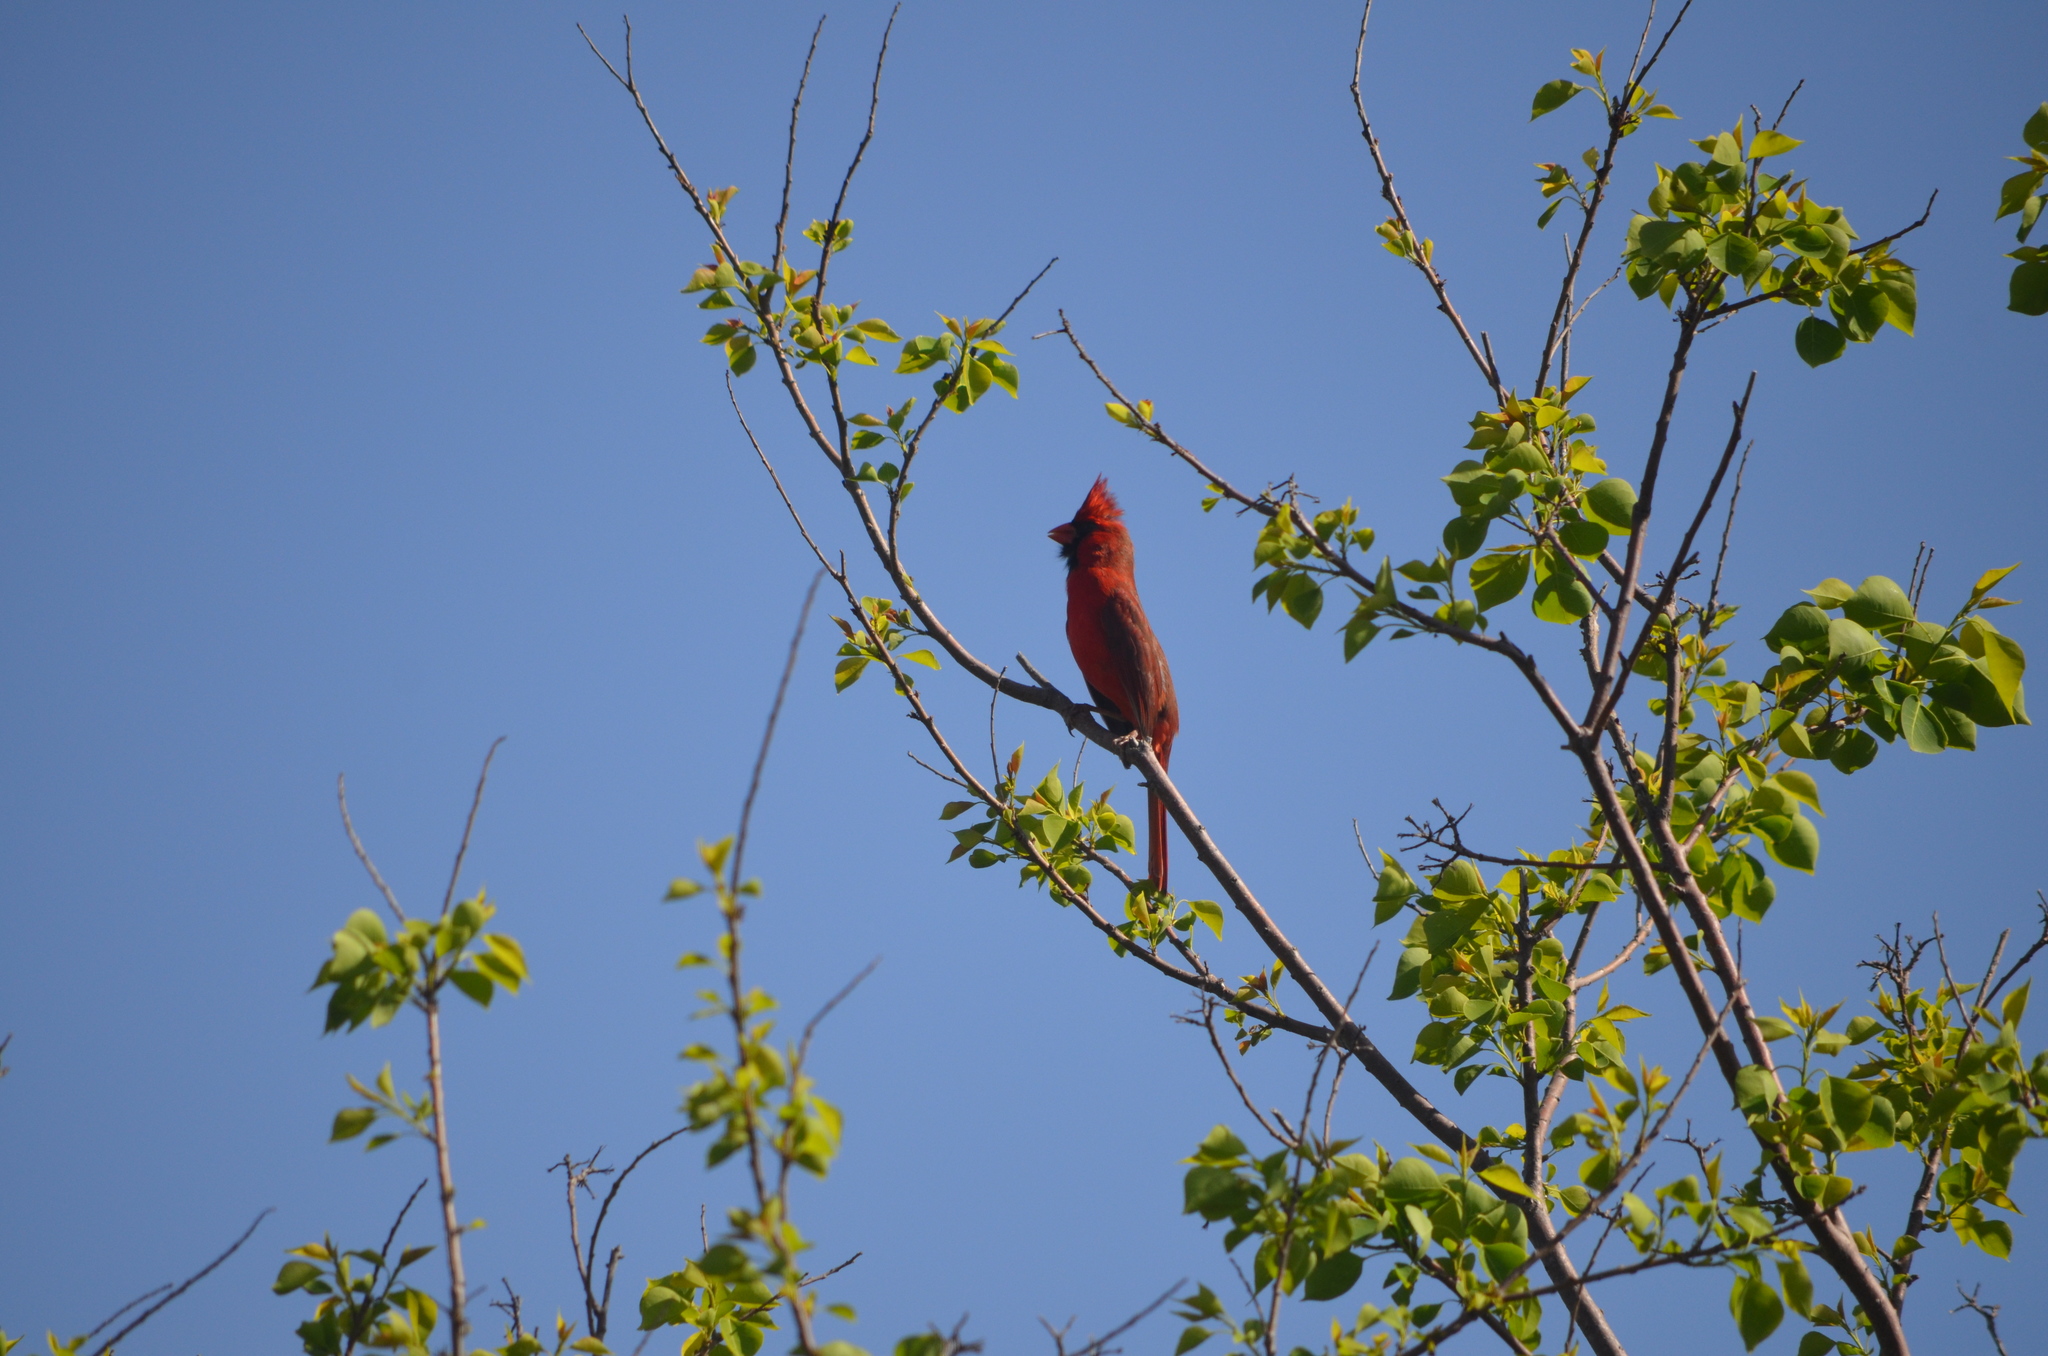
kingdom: Animalia
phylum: Chordata
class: Aves
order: Passeriformes
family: Cardinalidae
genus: Cardinalis
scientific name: Cardinalis cardinalis
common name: Northern cardinal
